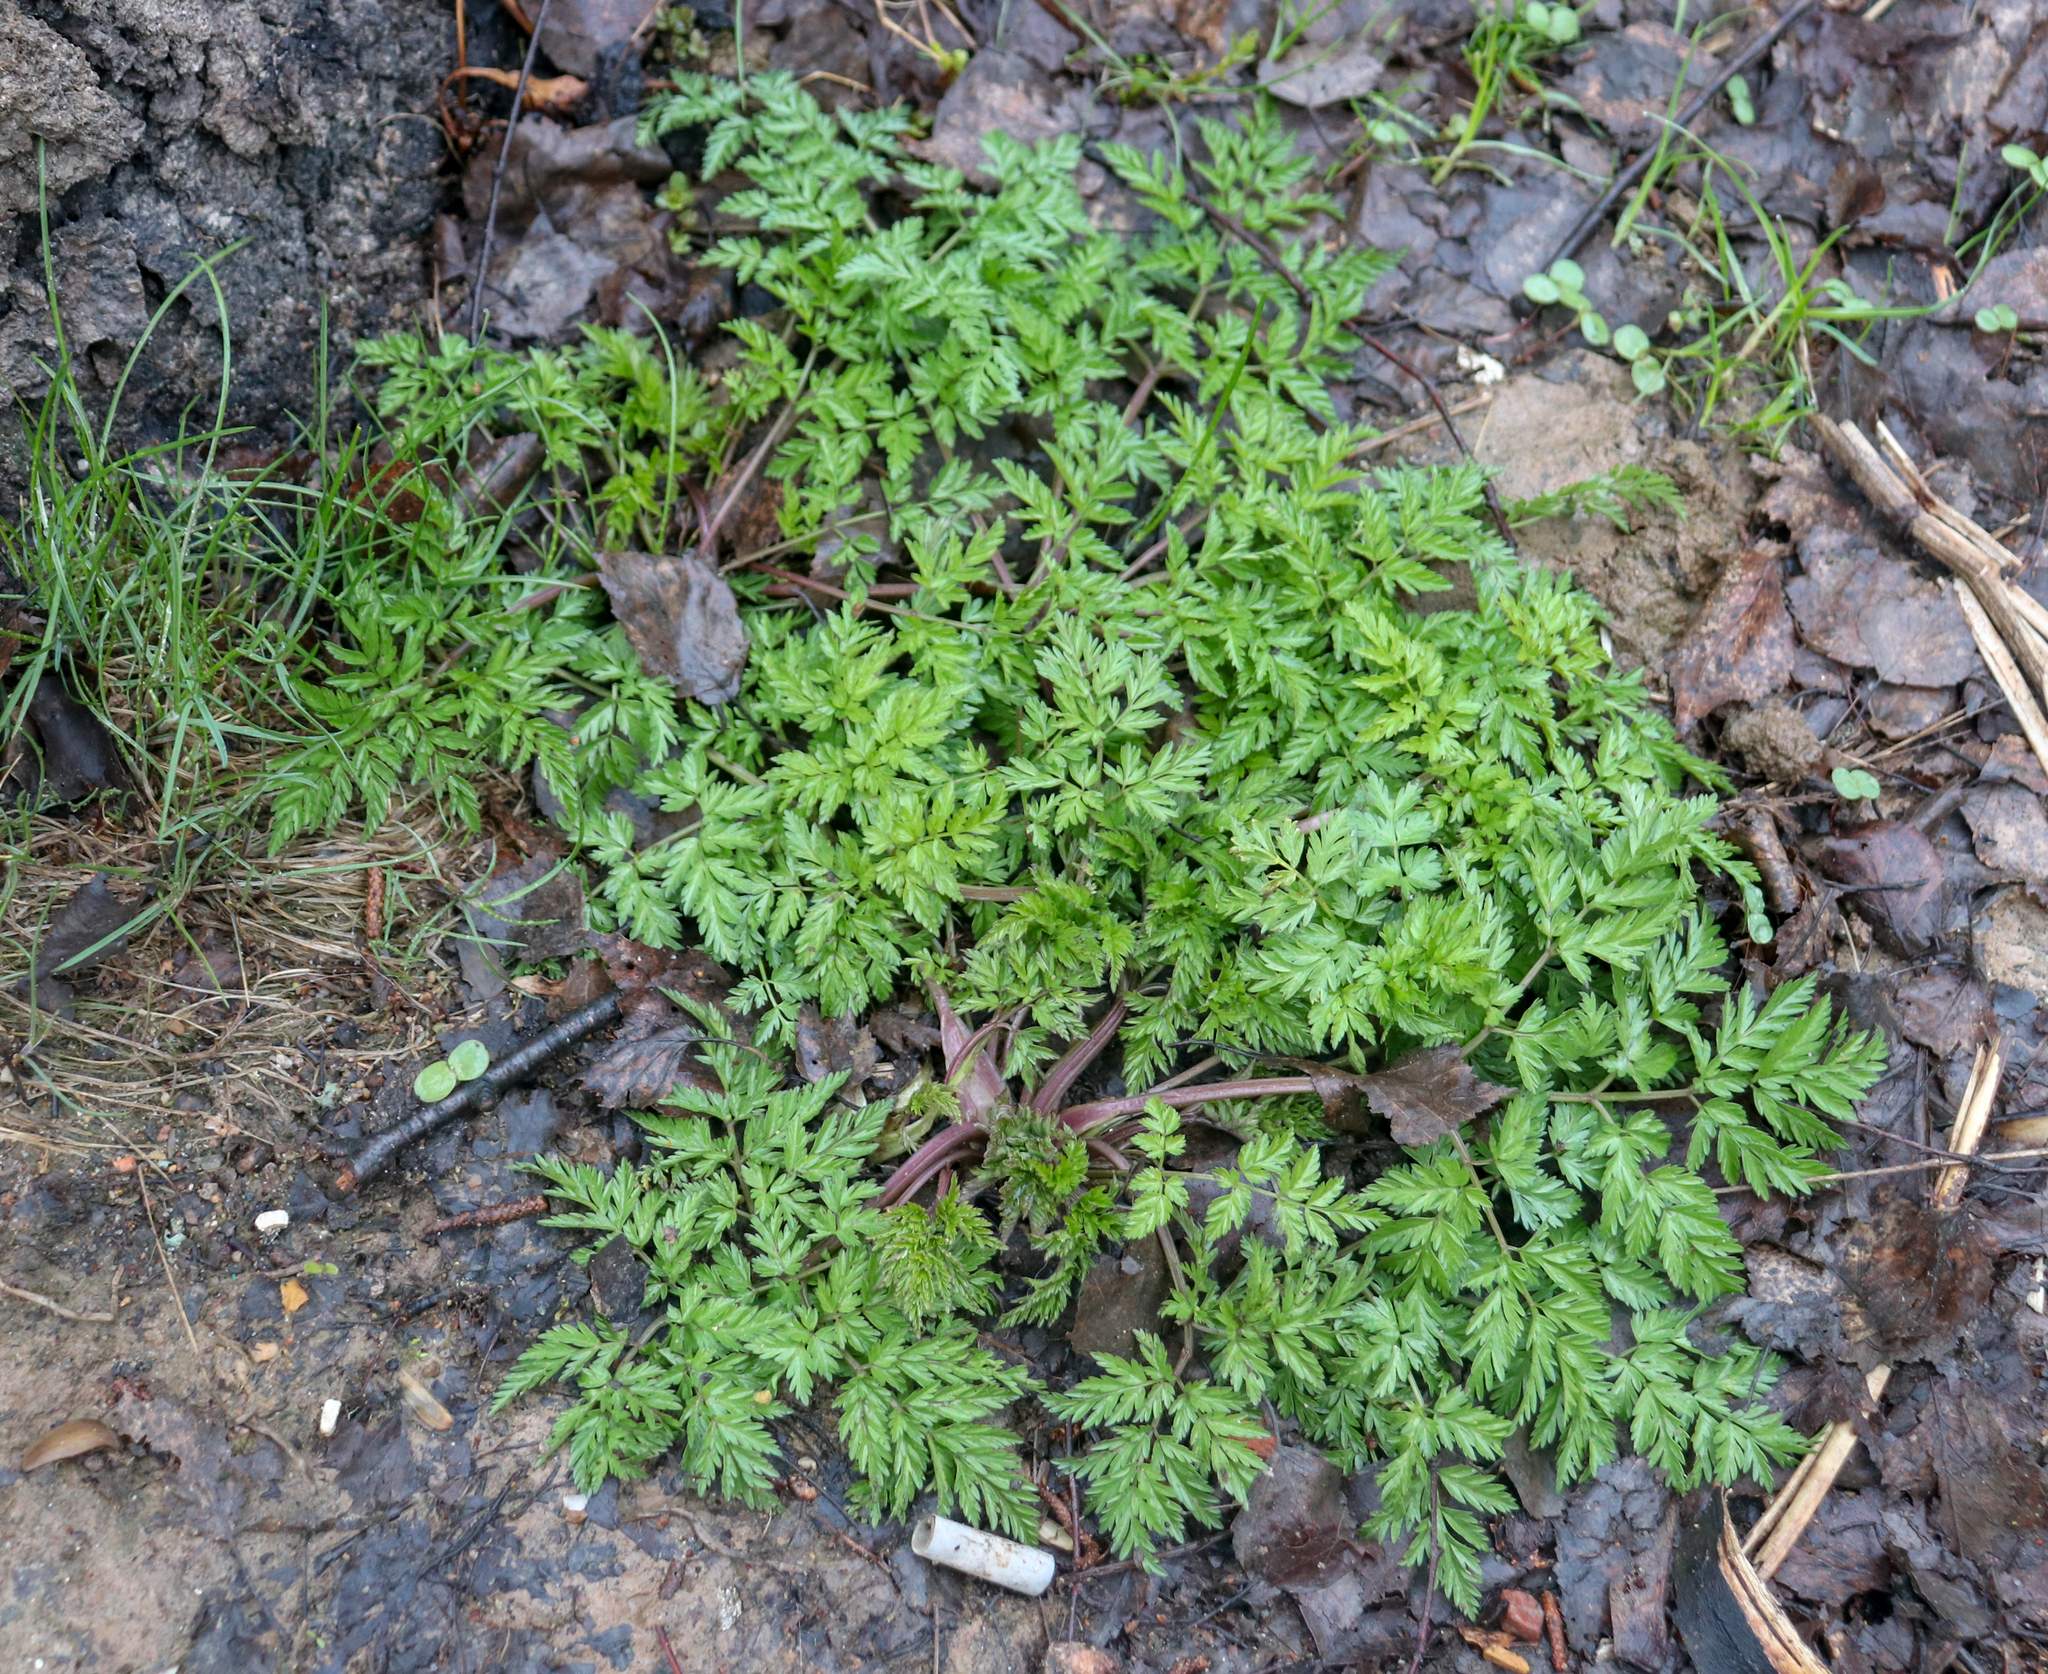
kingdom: Plantae
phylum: Tracheophyta
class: Magnoliopsida
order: Apiales
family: Apiaceae
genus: Anthriscus
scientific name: Anthriscus sylvestris
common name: Cow parsley
